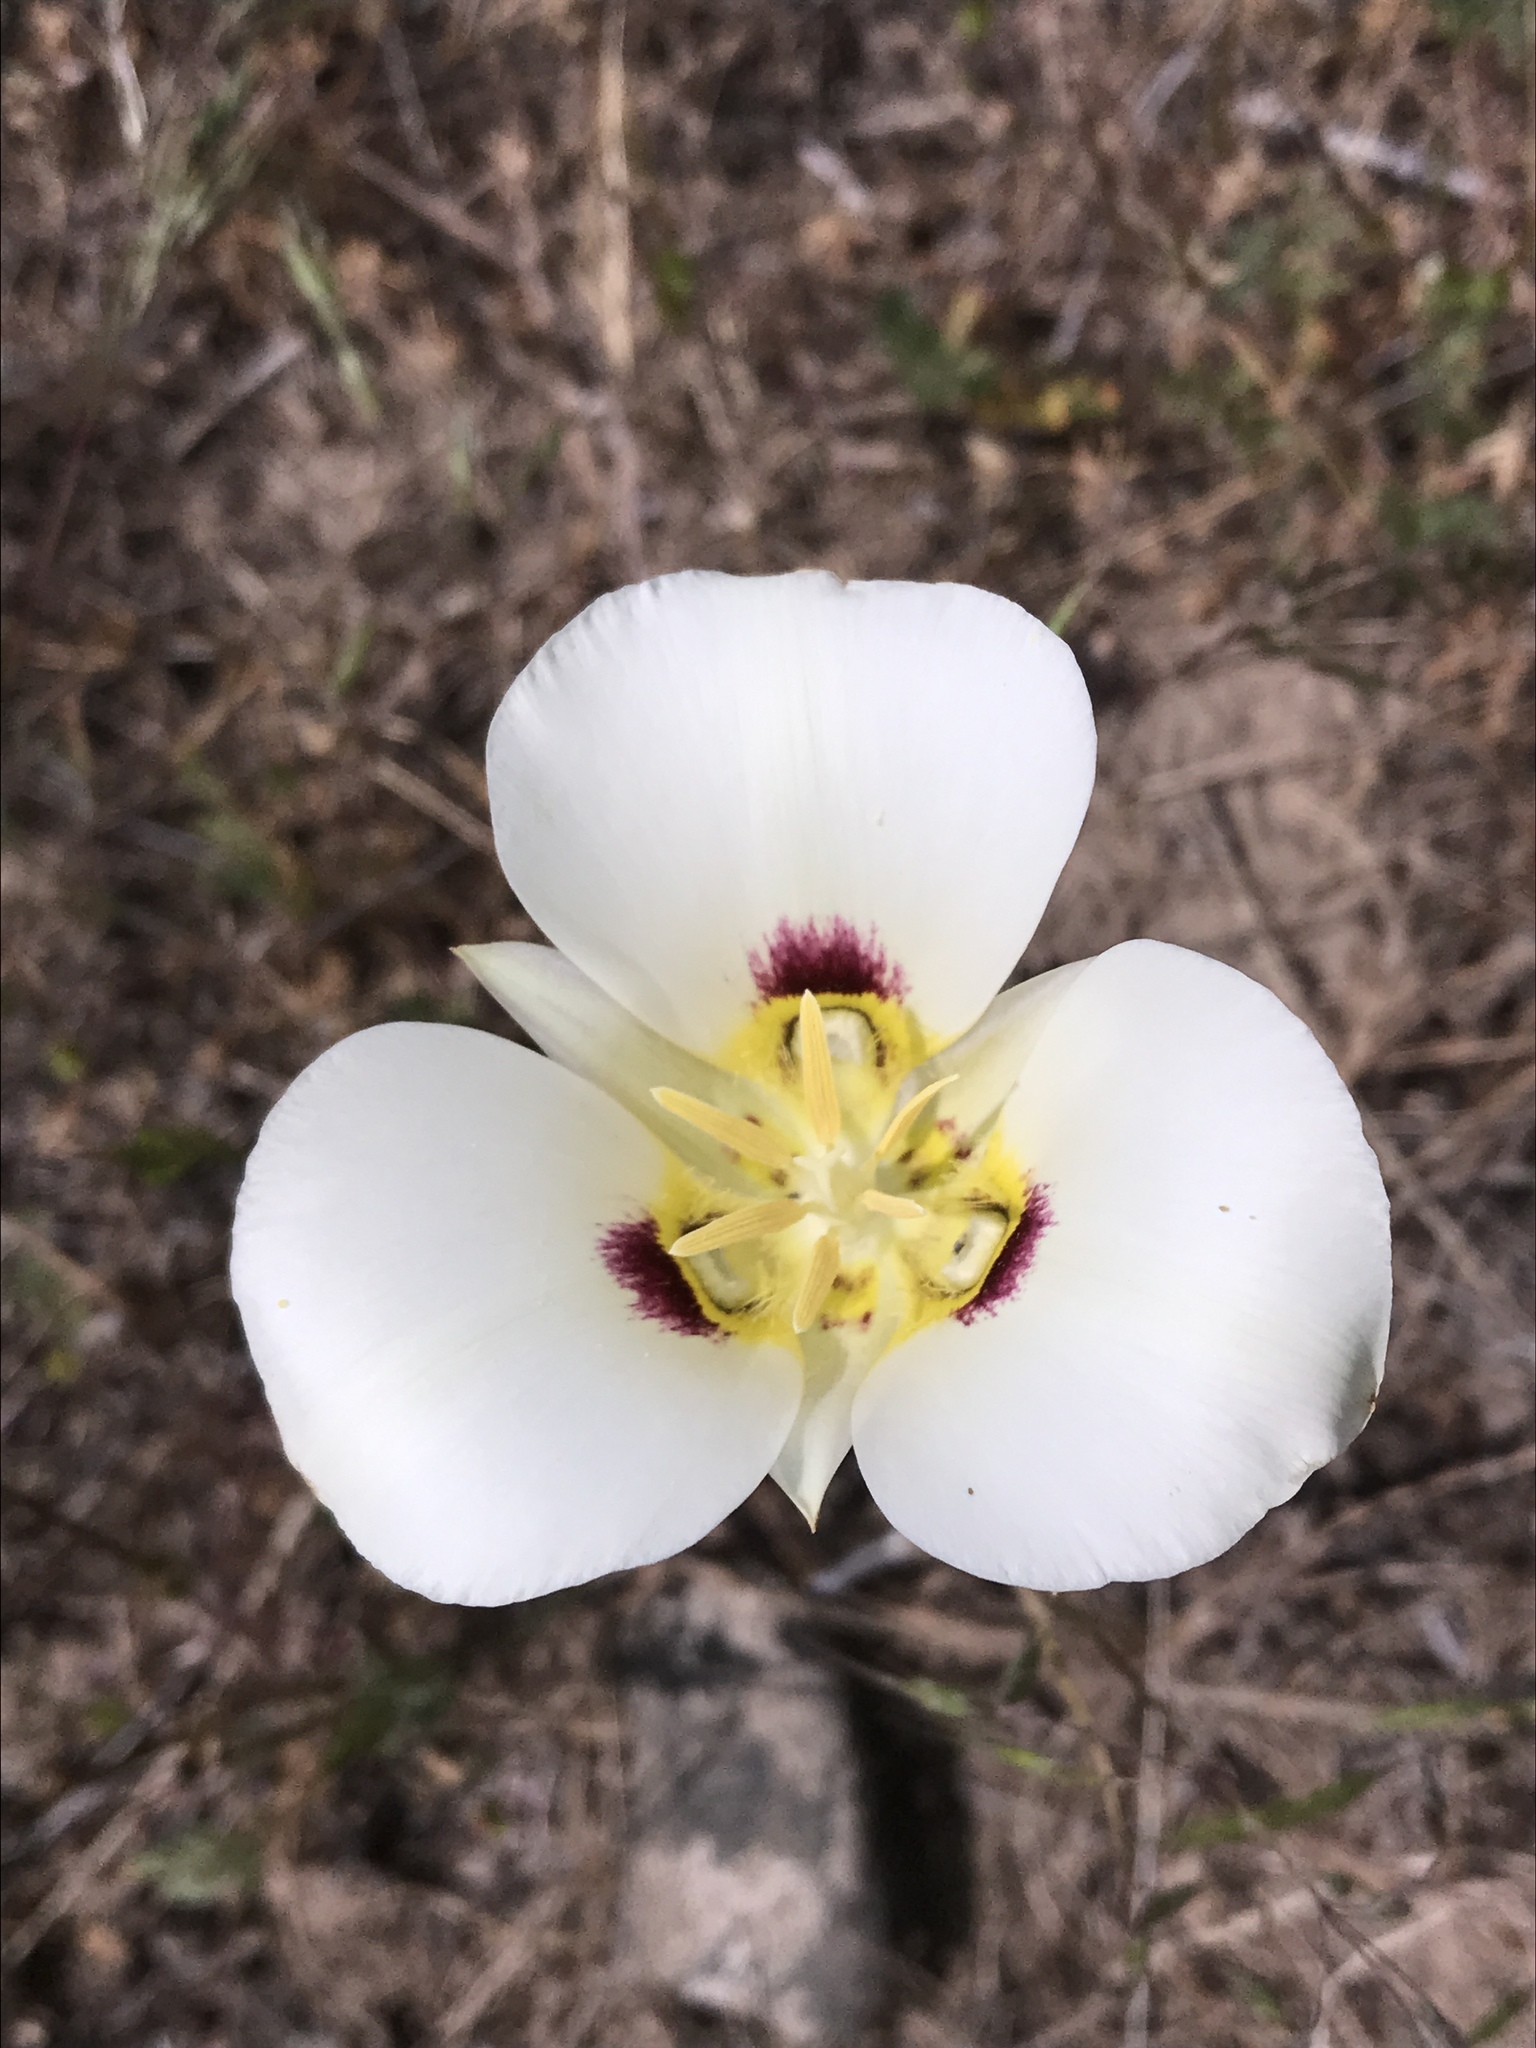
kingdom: Plantae
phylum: Tracheophyta
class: Liliopsida
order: Liliales
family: Liliaceae
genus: Calochortus
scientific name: Calochortus nuttallii
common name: Sego-lily
